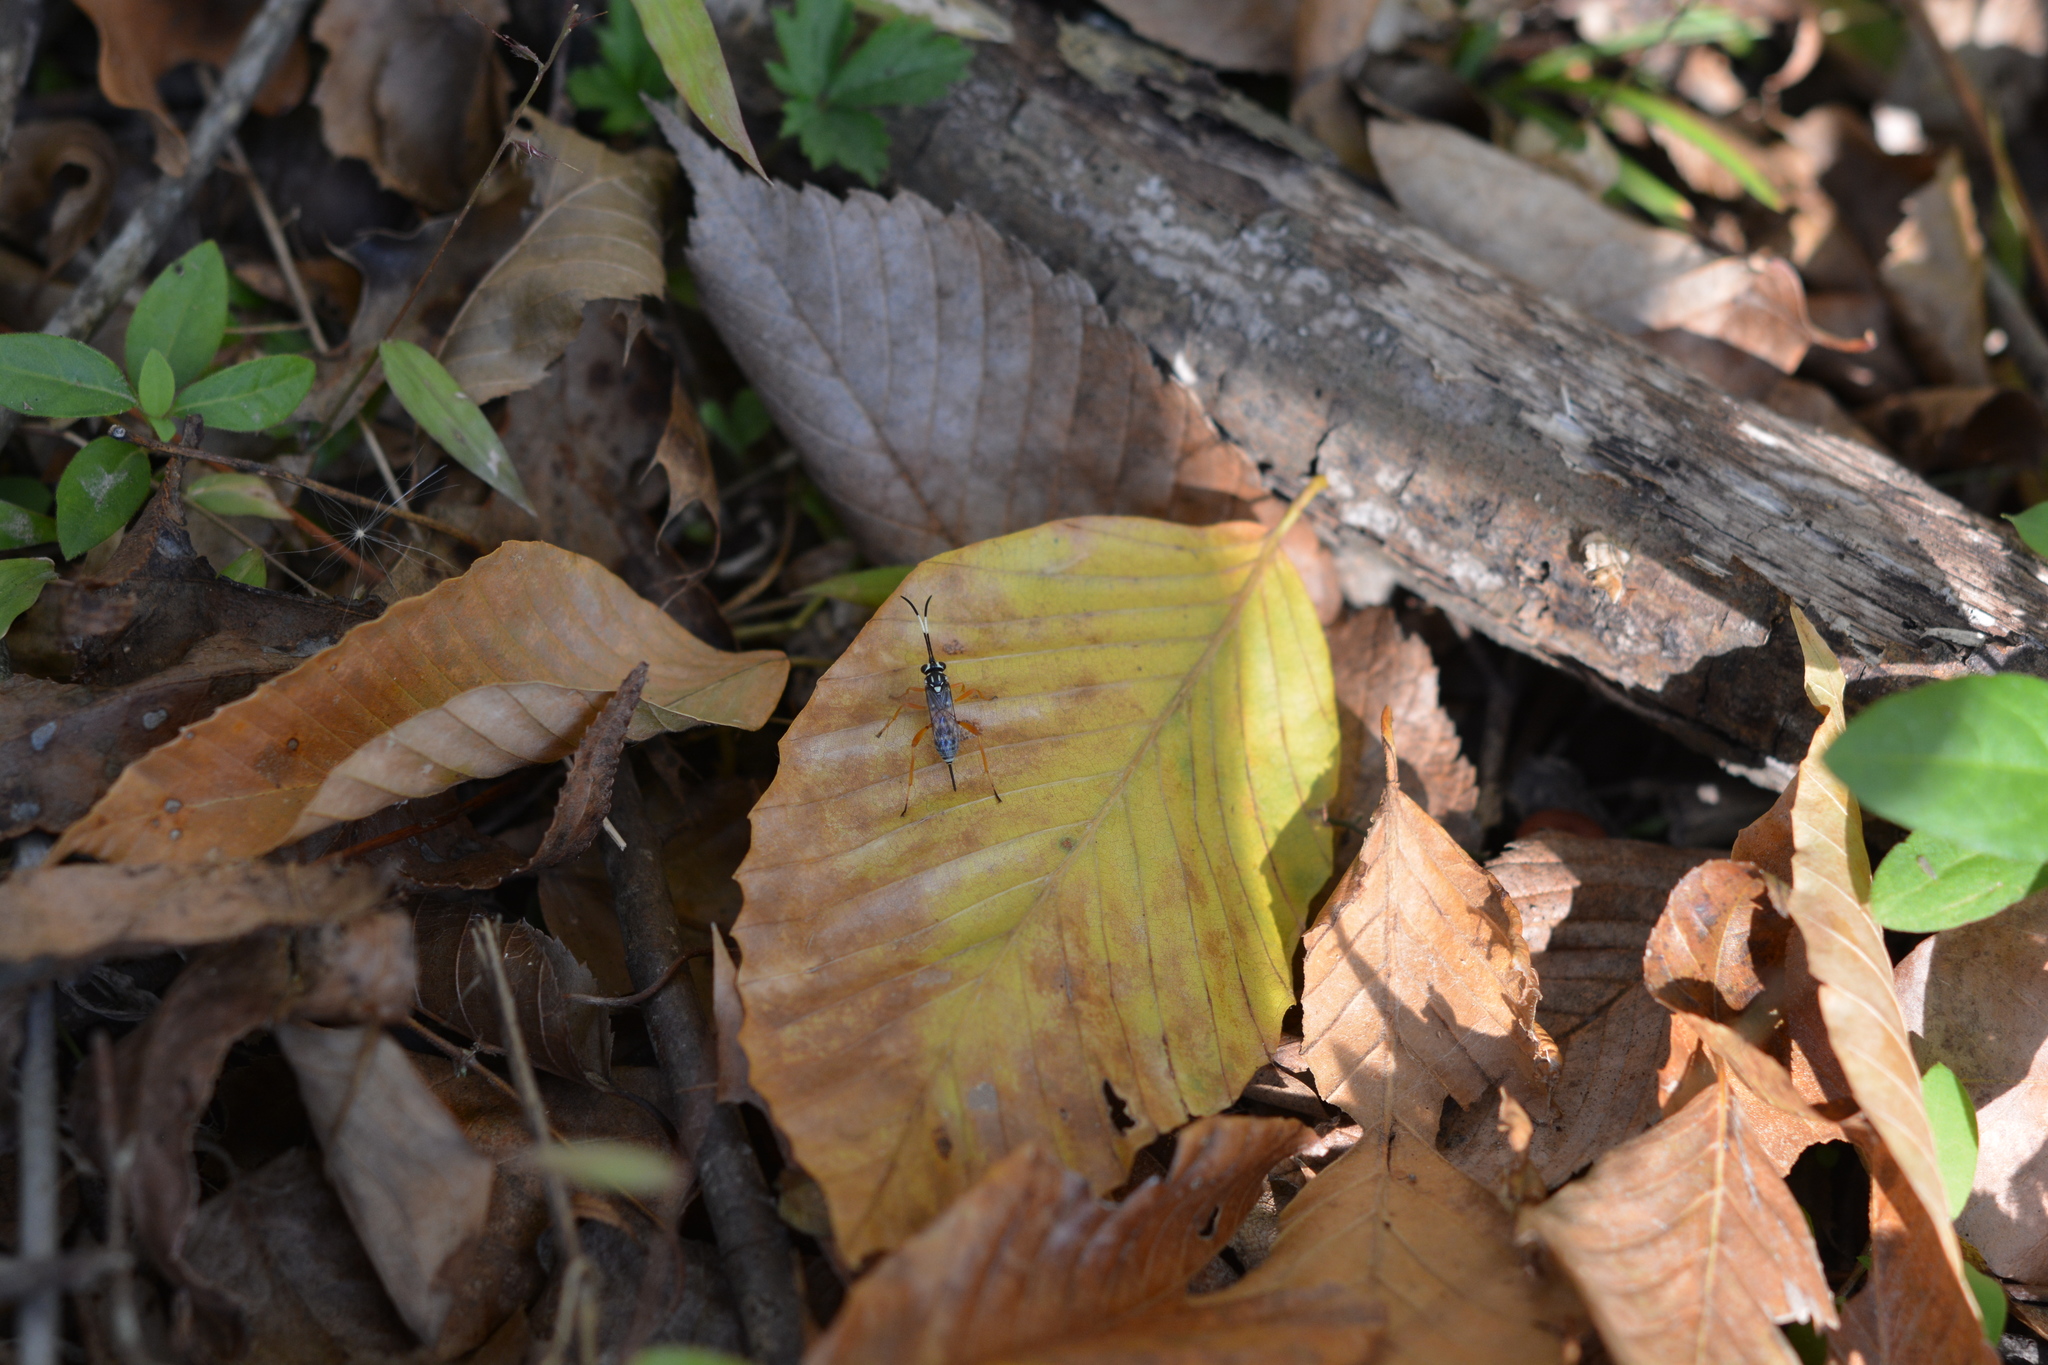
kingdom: Animalia
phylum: Arthropoda
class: Insecta
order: Hymenoptera
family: Ichneumonidae
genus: Baryceros
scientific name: Baryceros texanus
